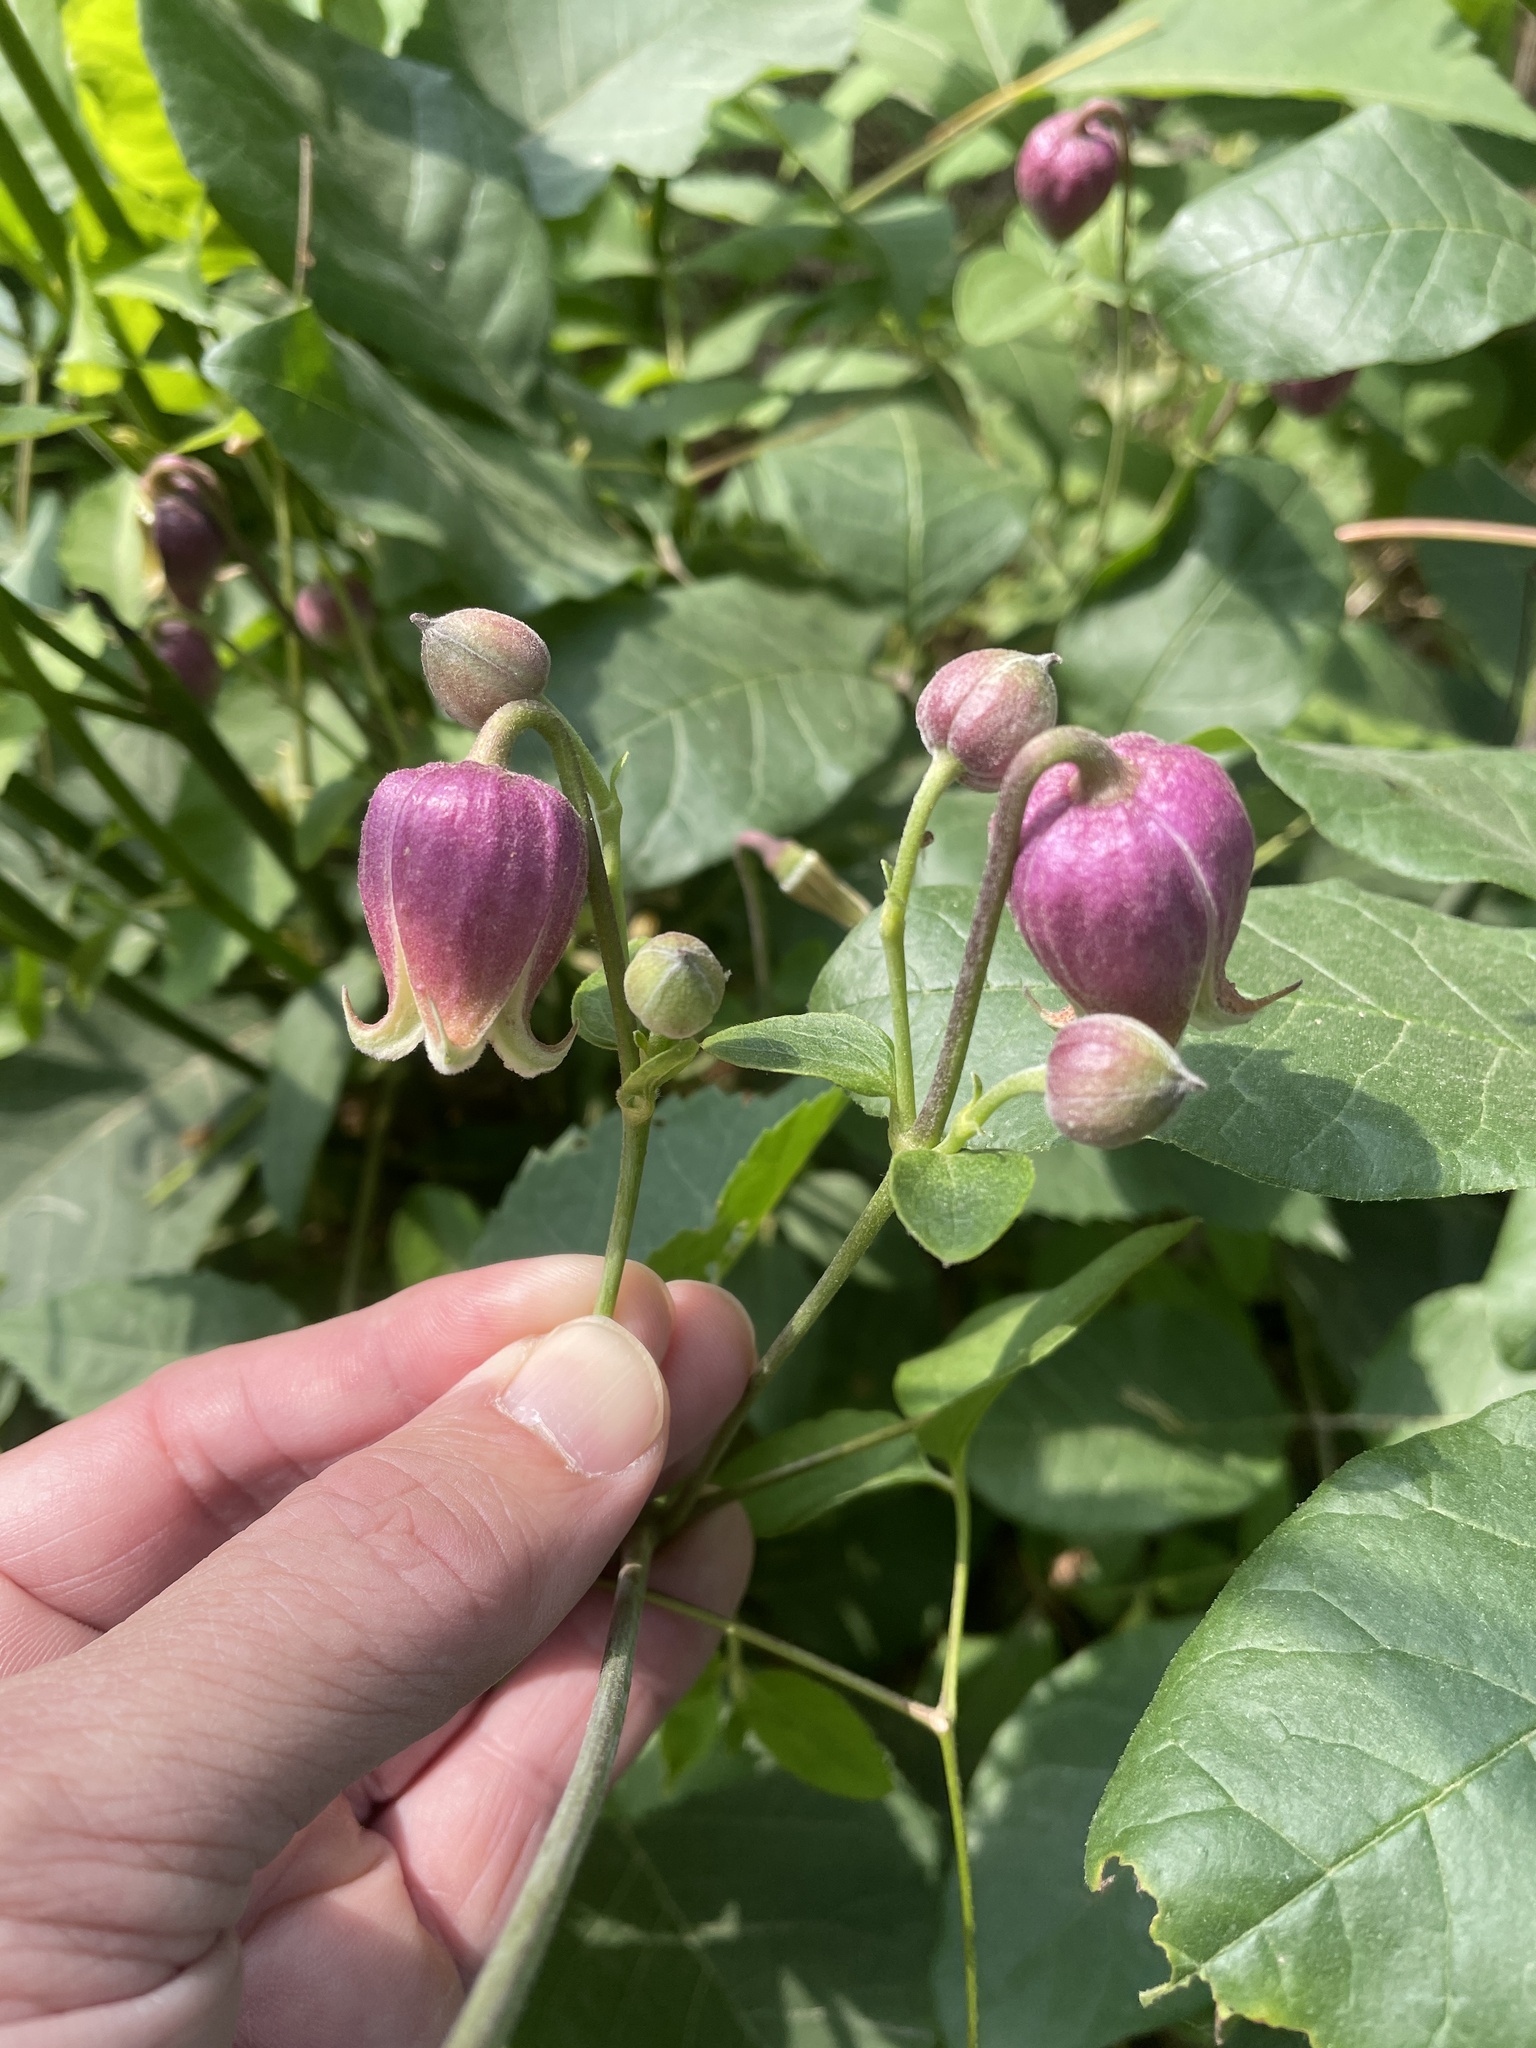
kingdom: Plantae
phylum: Tracheophyta
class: Magnoliopsida
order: Ranunculales
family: Ranunculaceae
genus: Clematis
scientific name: Clematis viorna
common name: Leather-flower
